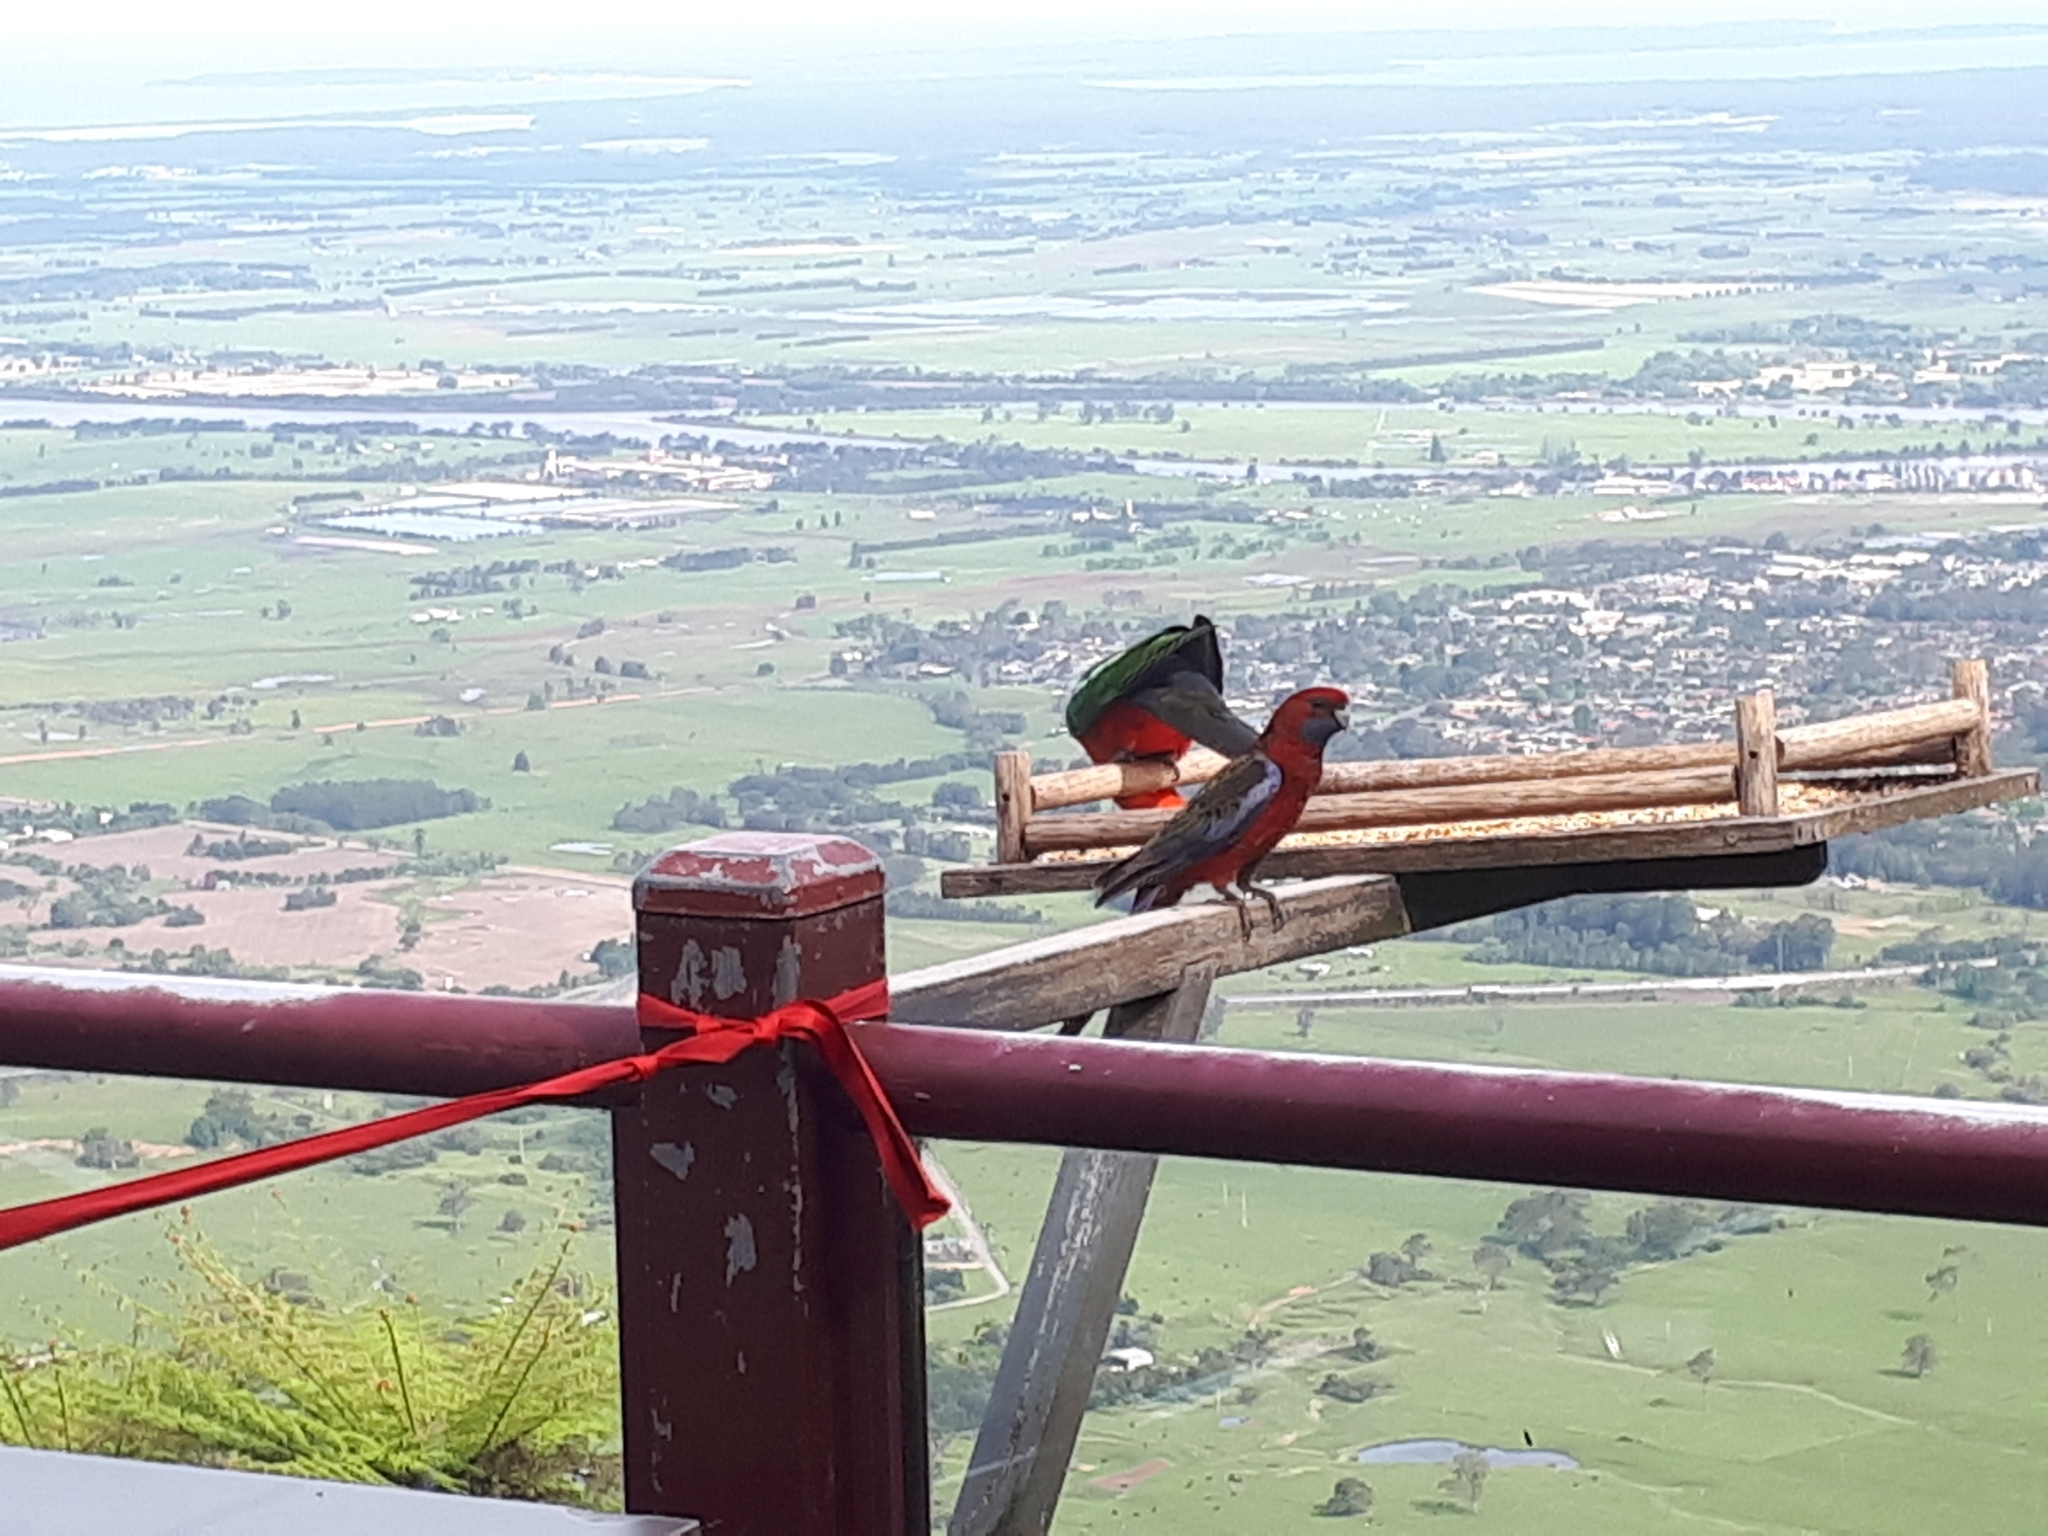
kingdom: Animalia
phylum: Chordata
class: Aves
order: Psittaciformes
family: Psittacidae
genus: Platycercus
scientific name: Platycercus elegans
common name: Crimson rosella
